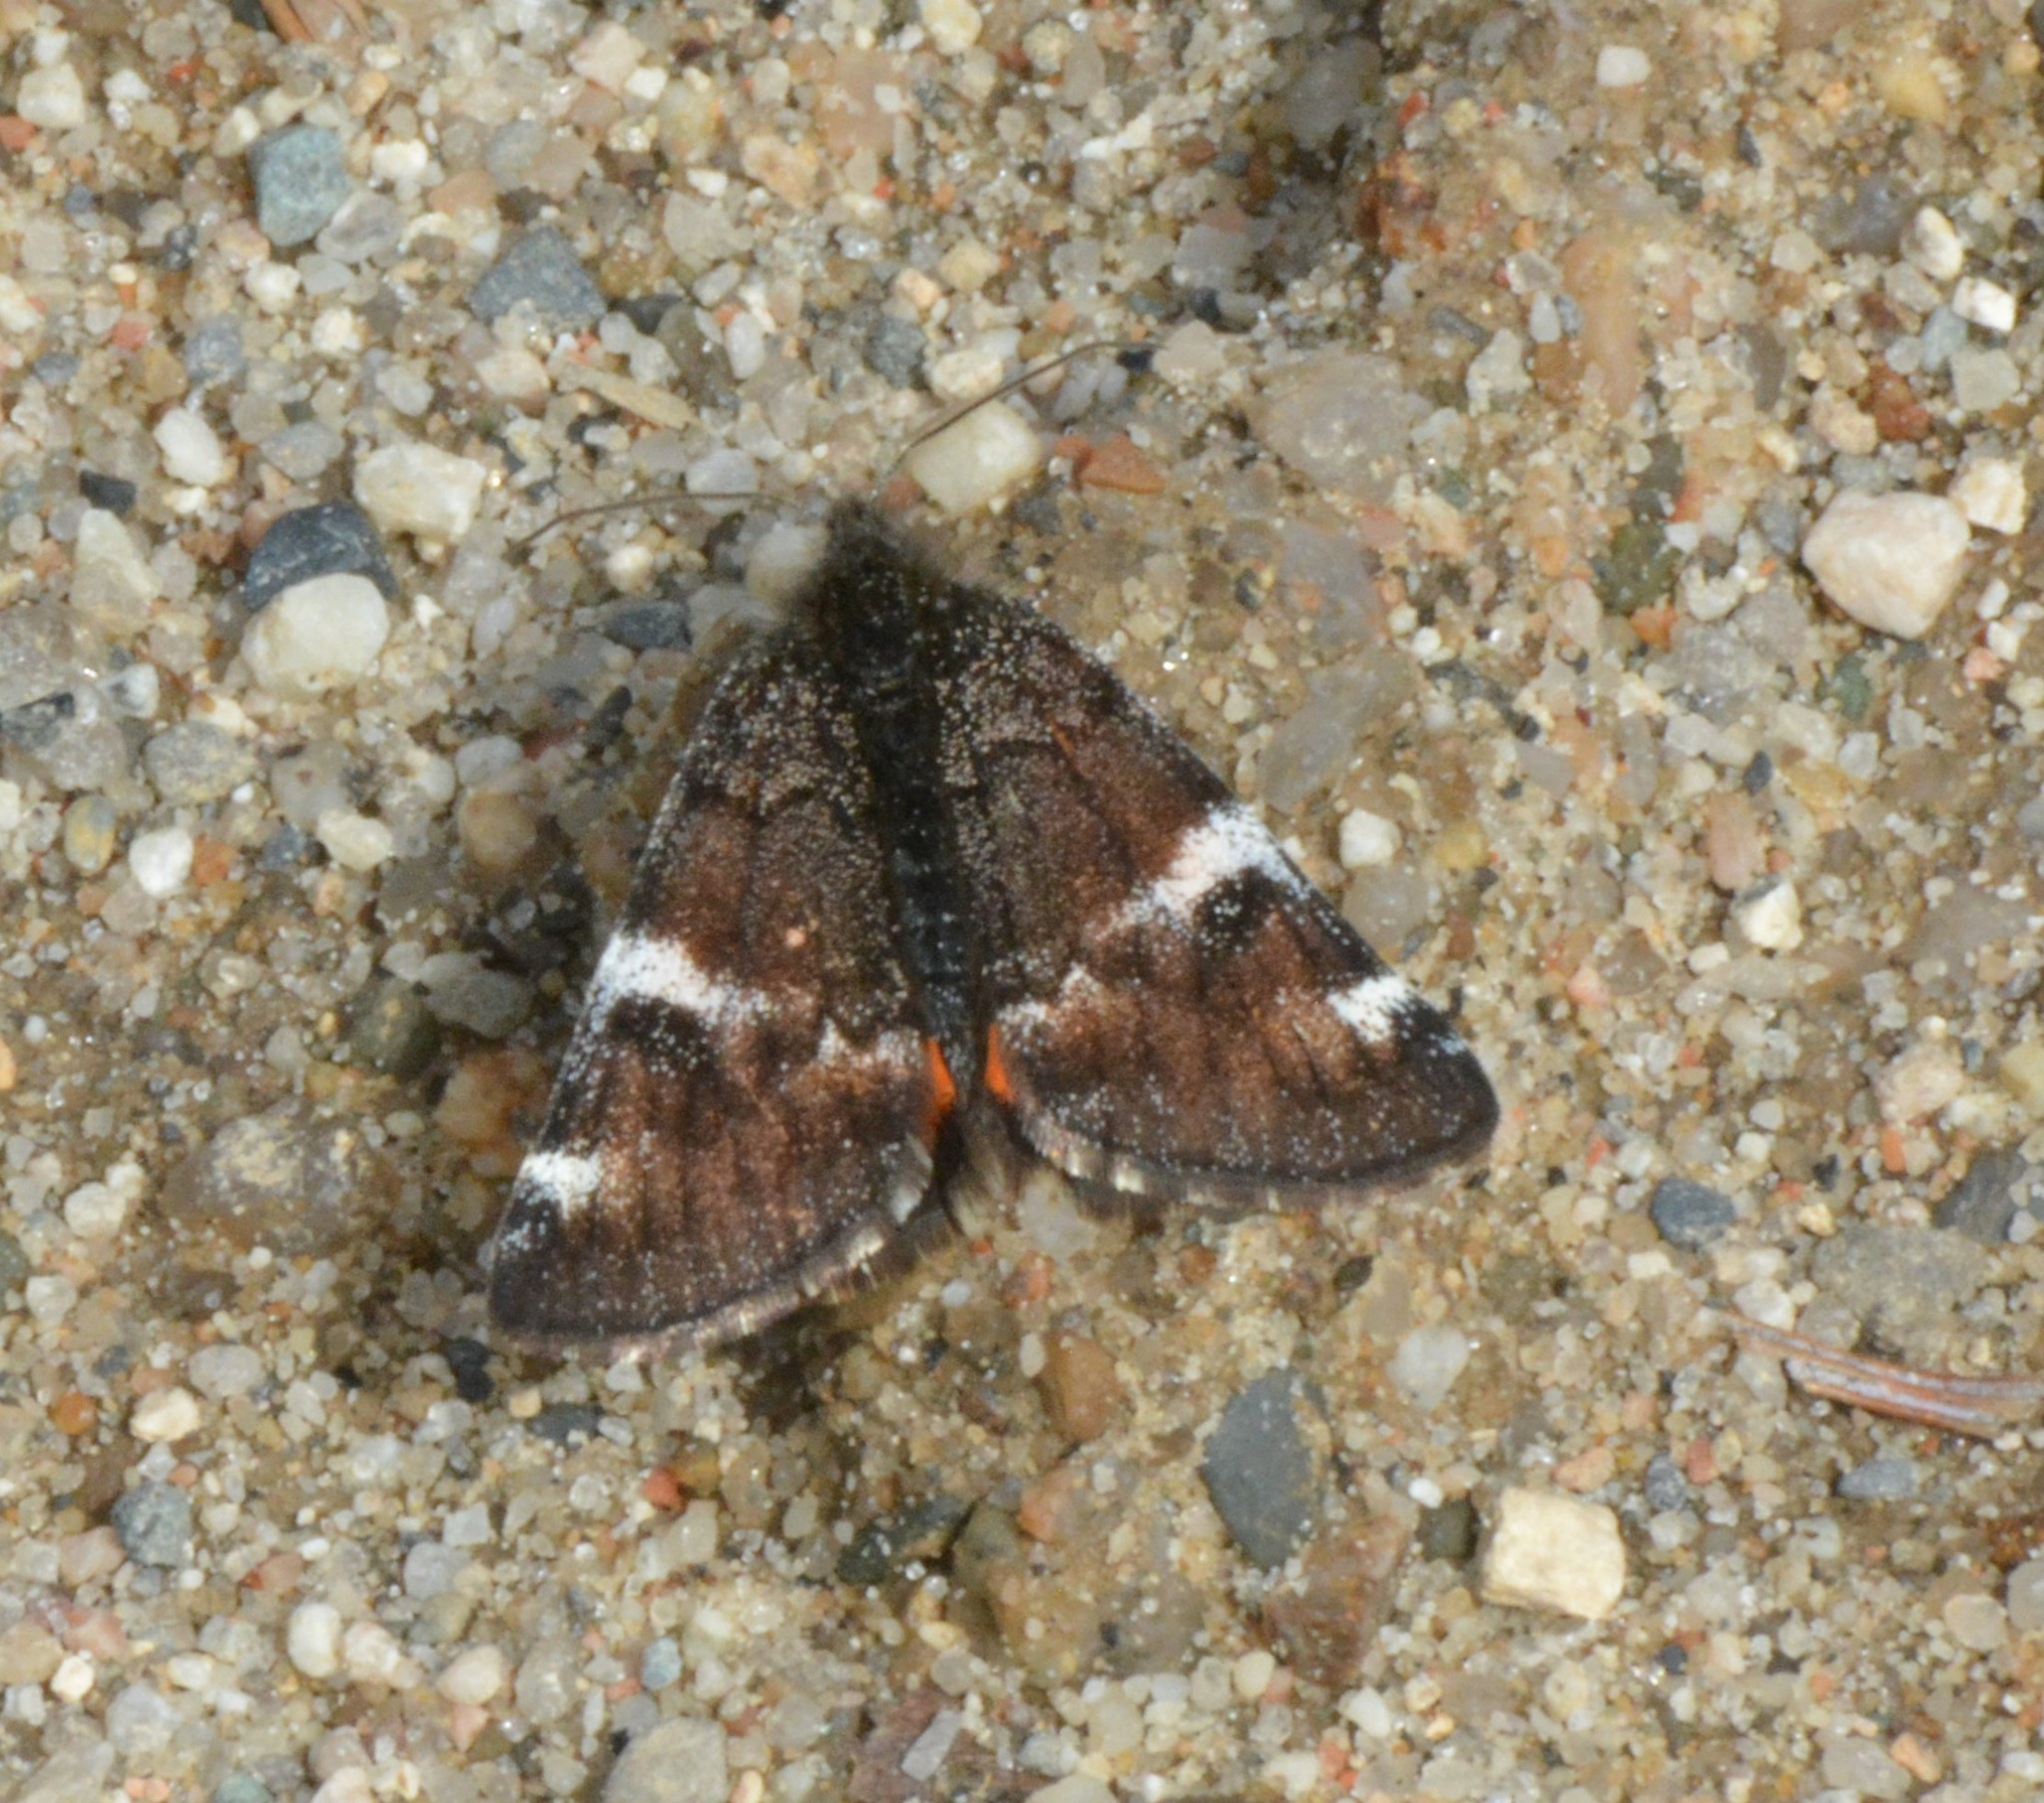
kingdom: Animalia
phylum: Arthropoda
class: Insecta
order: Lepidoptera
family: Geometridae
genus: Archiearis
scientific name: Archiearis infans
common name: First born geometer
